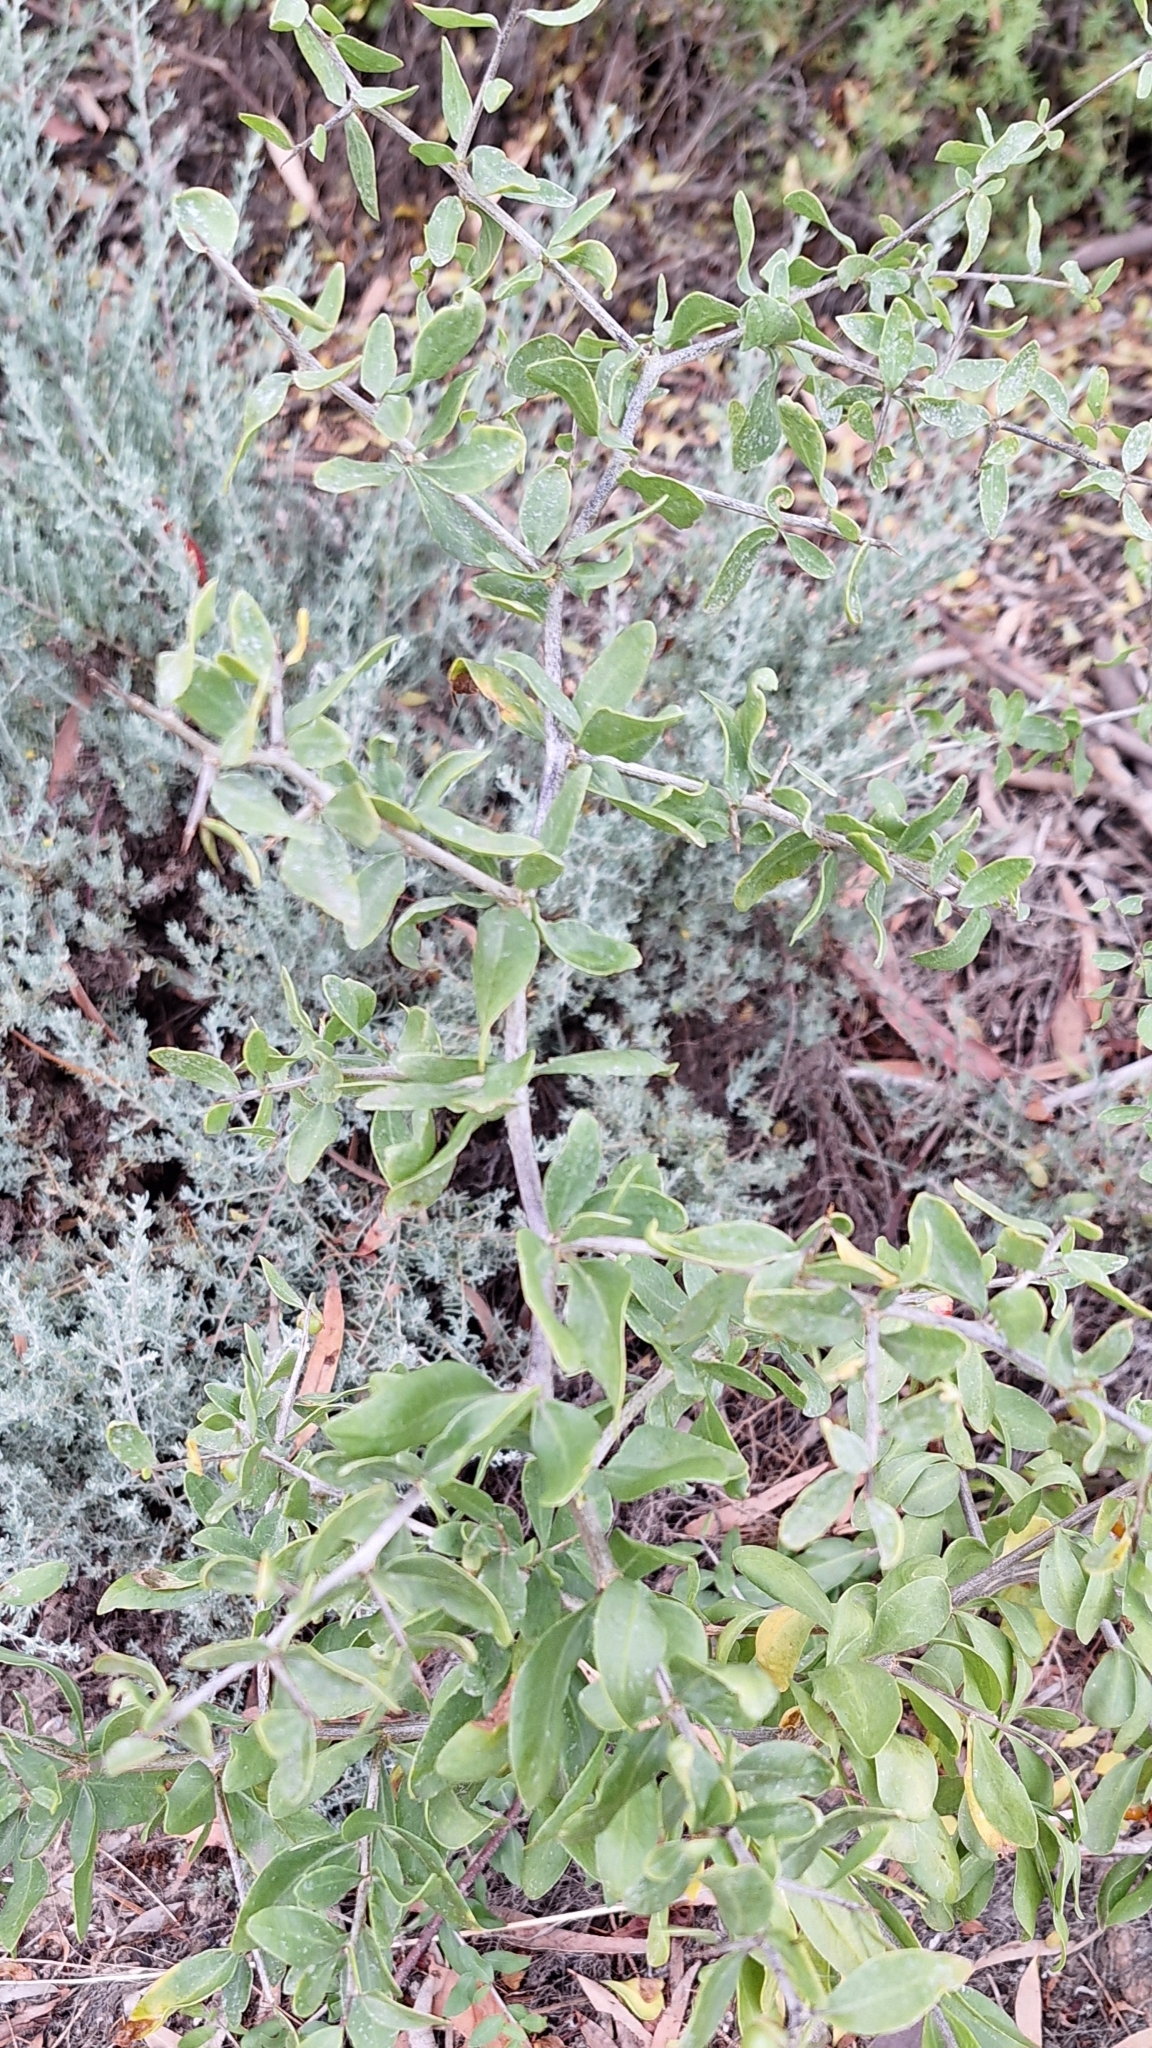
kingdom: Plantae
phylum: Tracheophyta
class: Magnoliopsida
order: Solanales
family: Solanaceae
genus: Lycium
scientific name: Lycium ferocissimum
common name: African boxthorn
